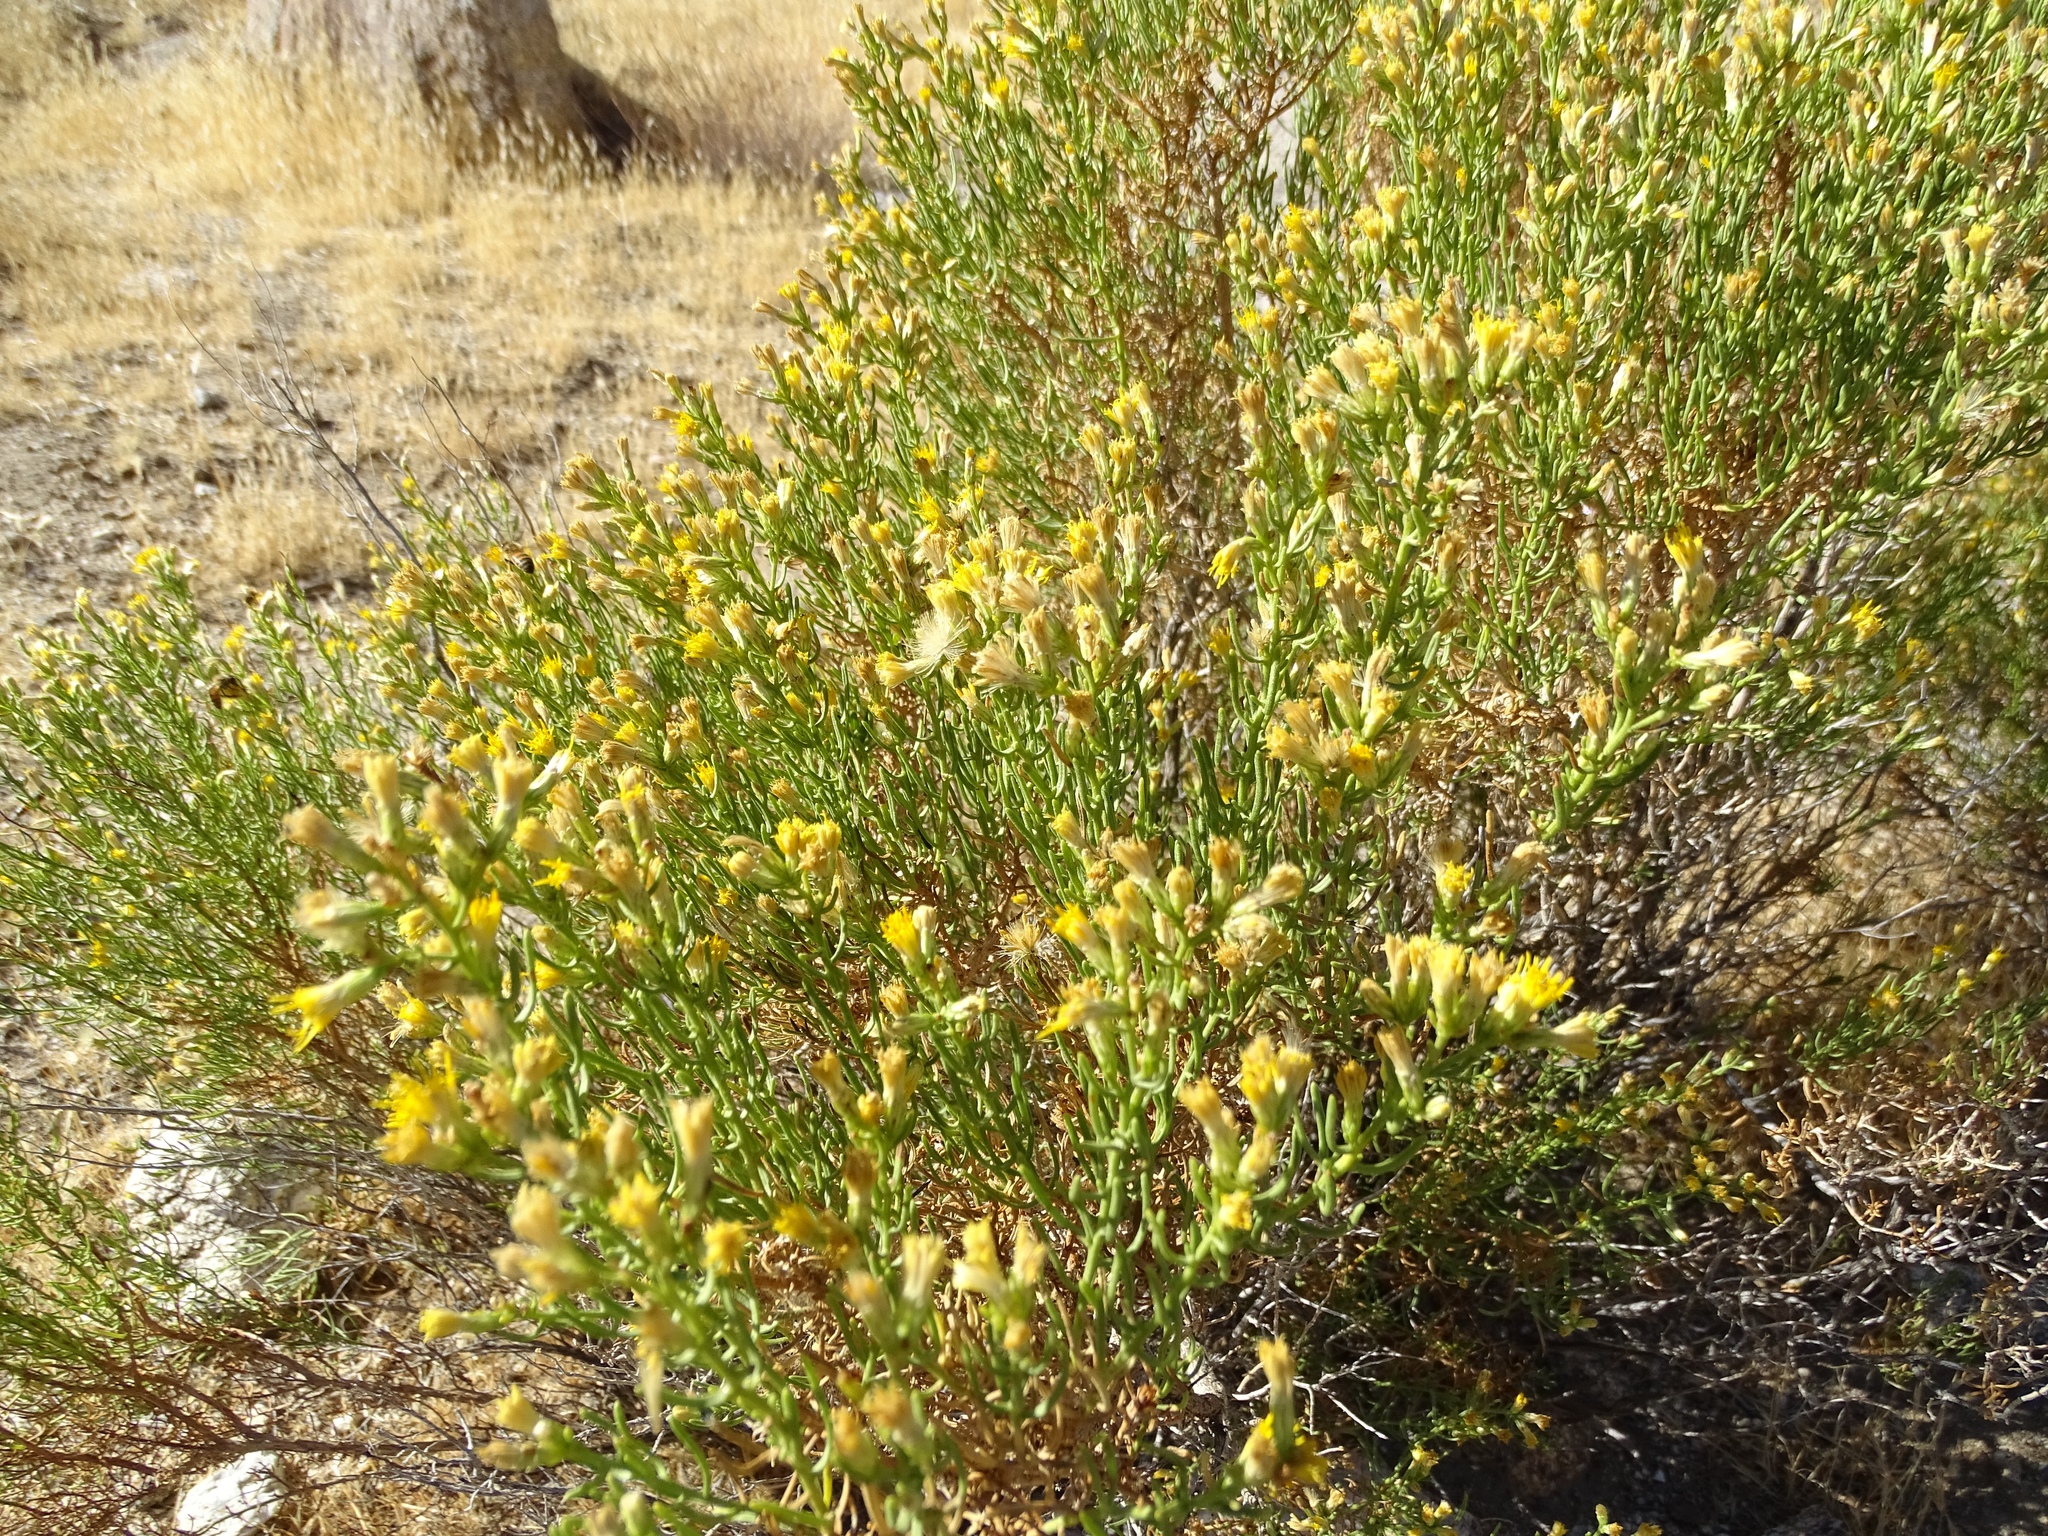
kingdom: Plantae
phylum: Tracheophyta
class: Magnoliopsida
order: Asterales
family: Asteraceae
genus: Ericameria
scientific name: Ericameria brachylepis
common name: Boundary goldenbush
